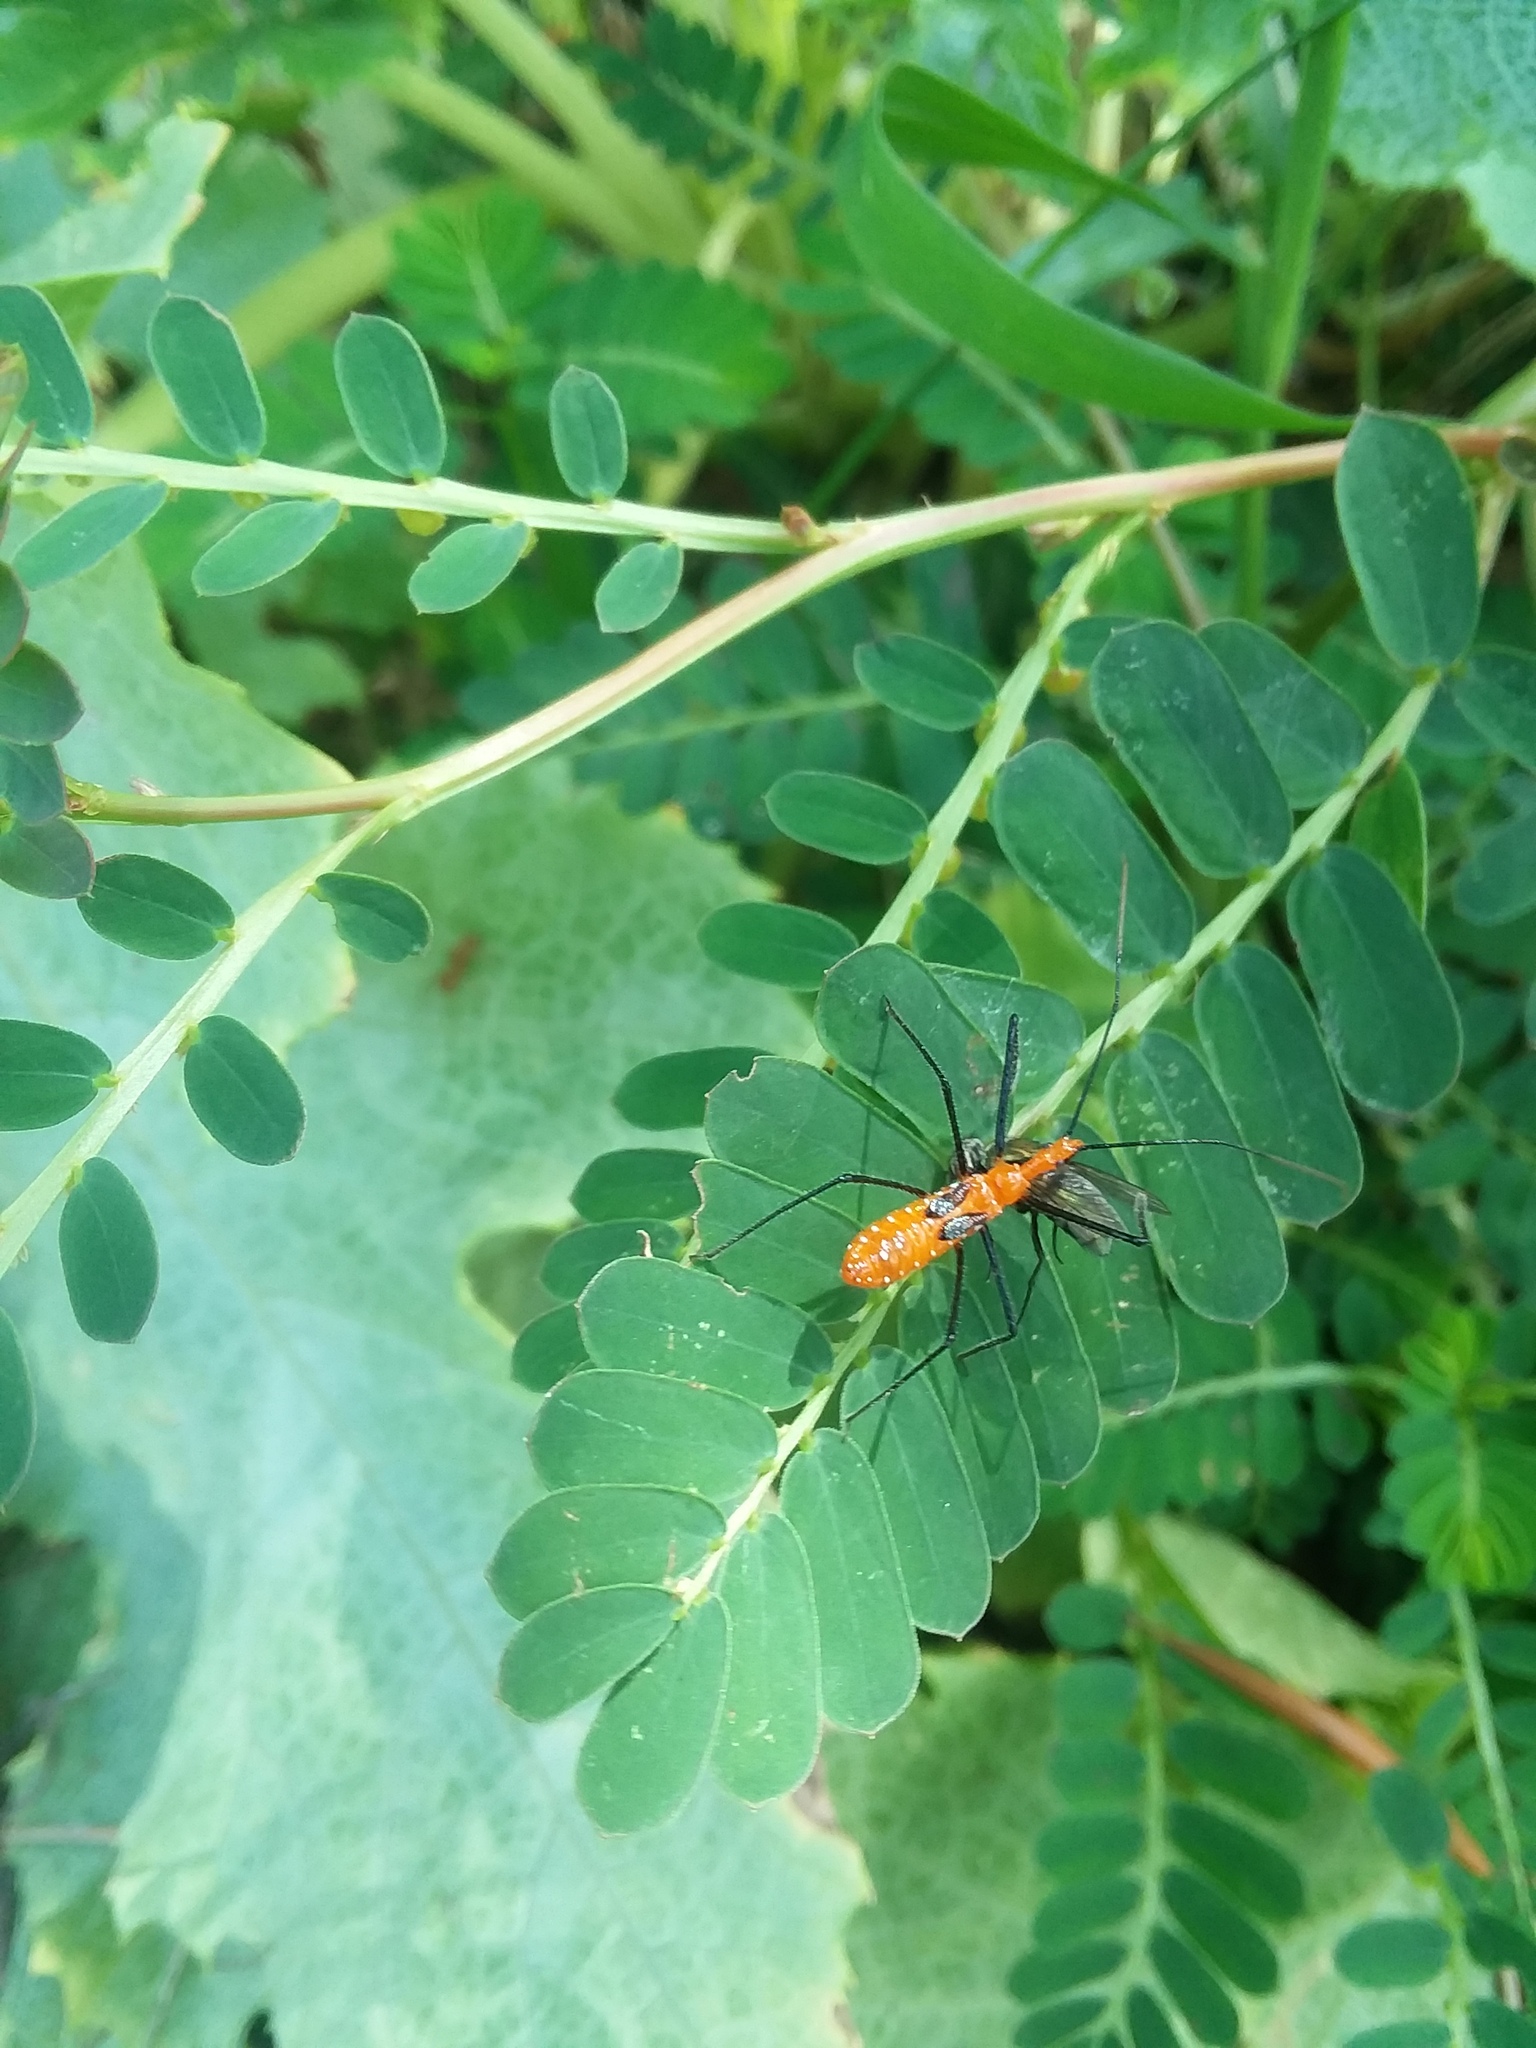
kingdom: Animalia
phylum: Arthropoda
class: Insecta
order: Hemiptera
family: Reduviidae
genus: Zelus
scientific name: Zelus longipes
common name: Milkweed assassin bug
